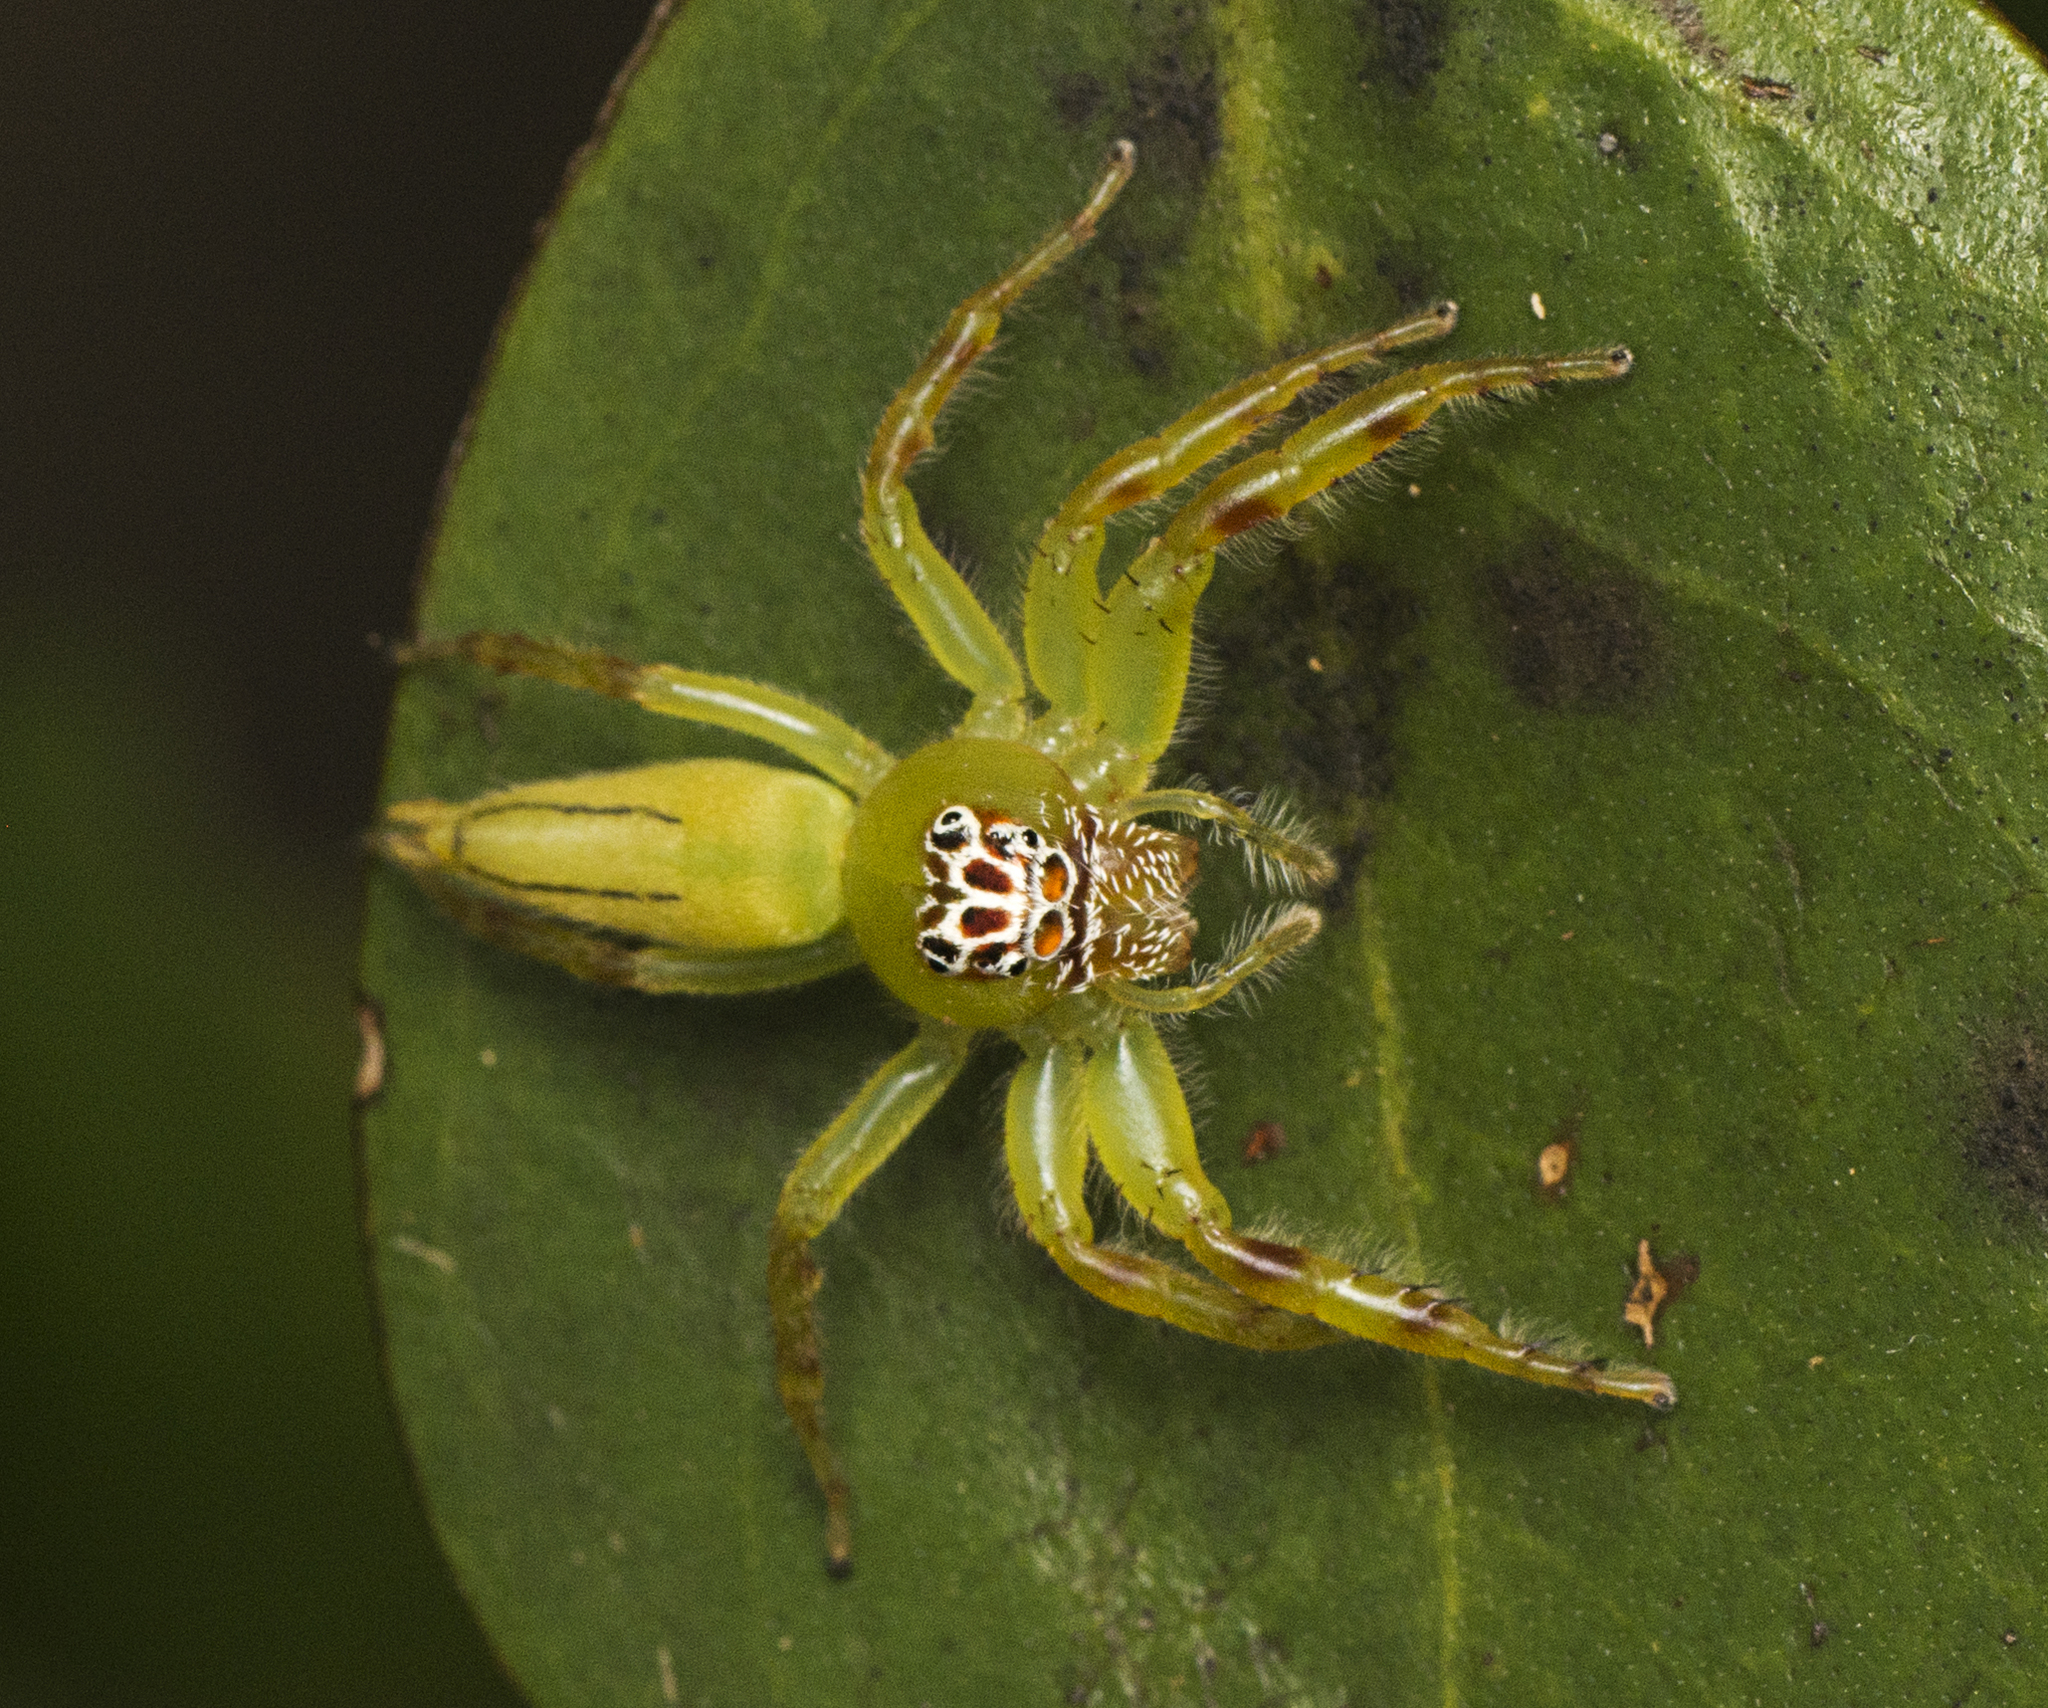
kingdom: Animalia
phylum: Arthropoda
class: Arachnida
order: Araneae
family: Salticidae
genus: Mopsus
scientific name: Mopsus mormon
